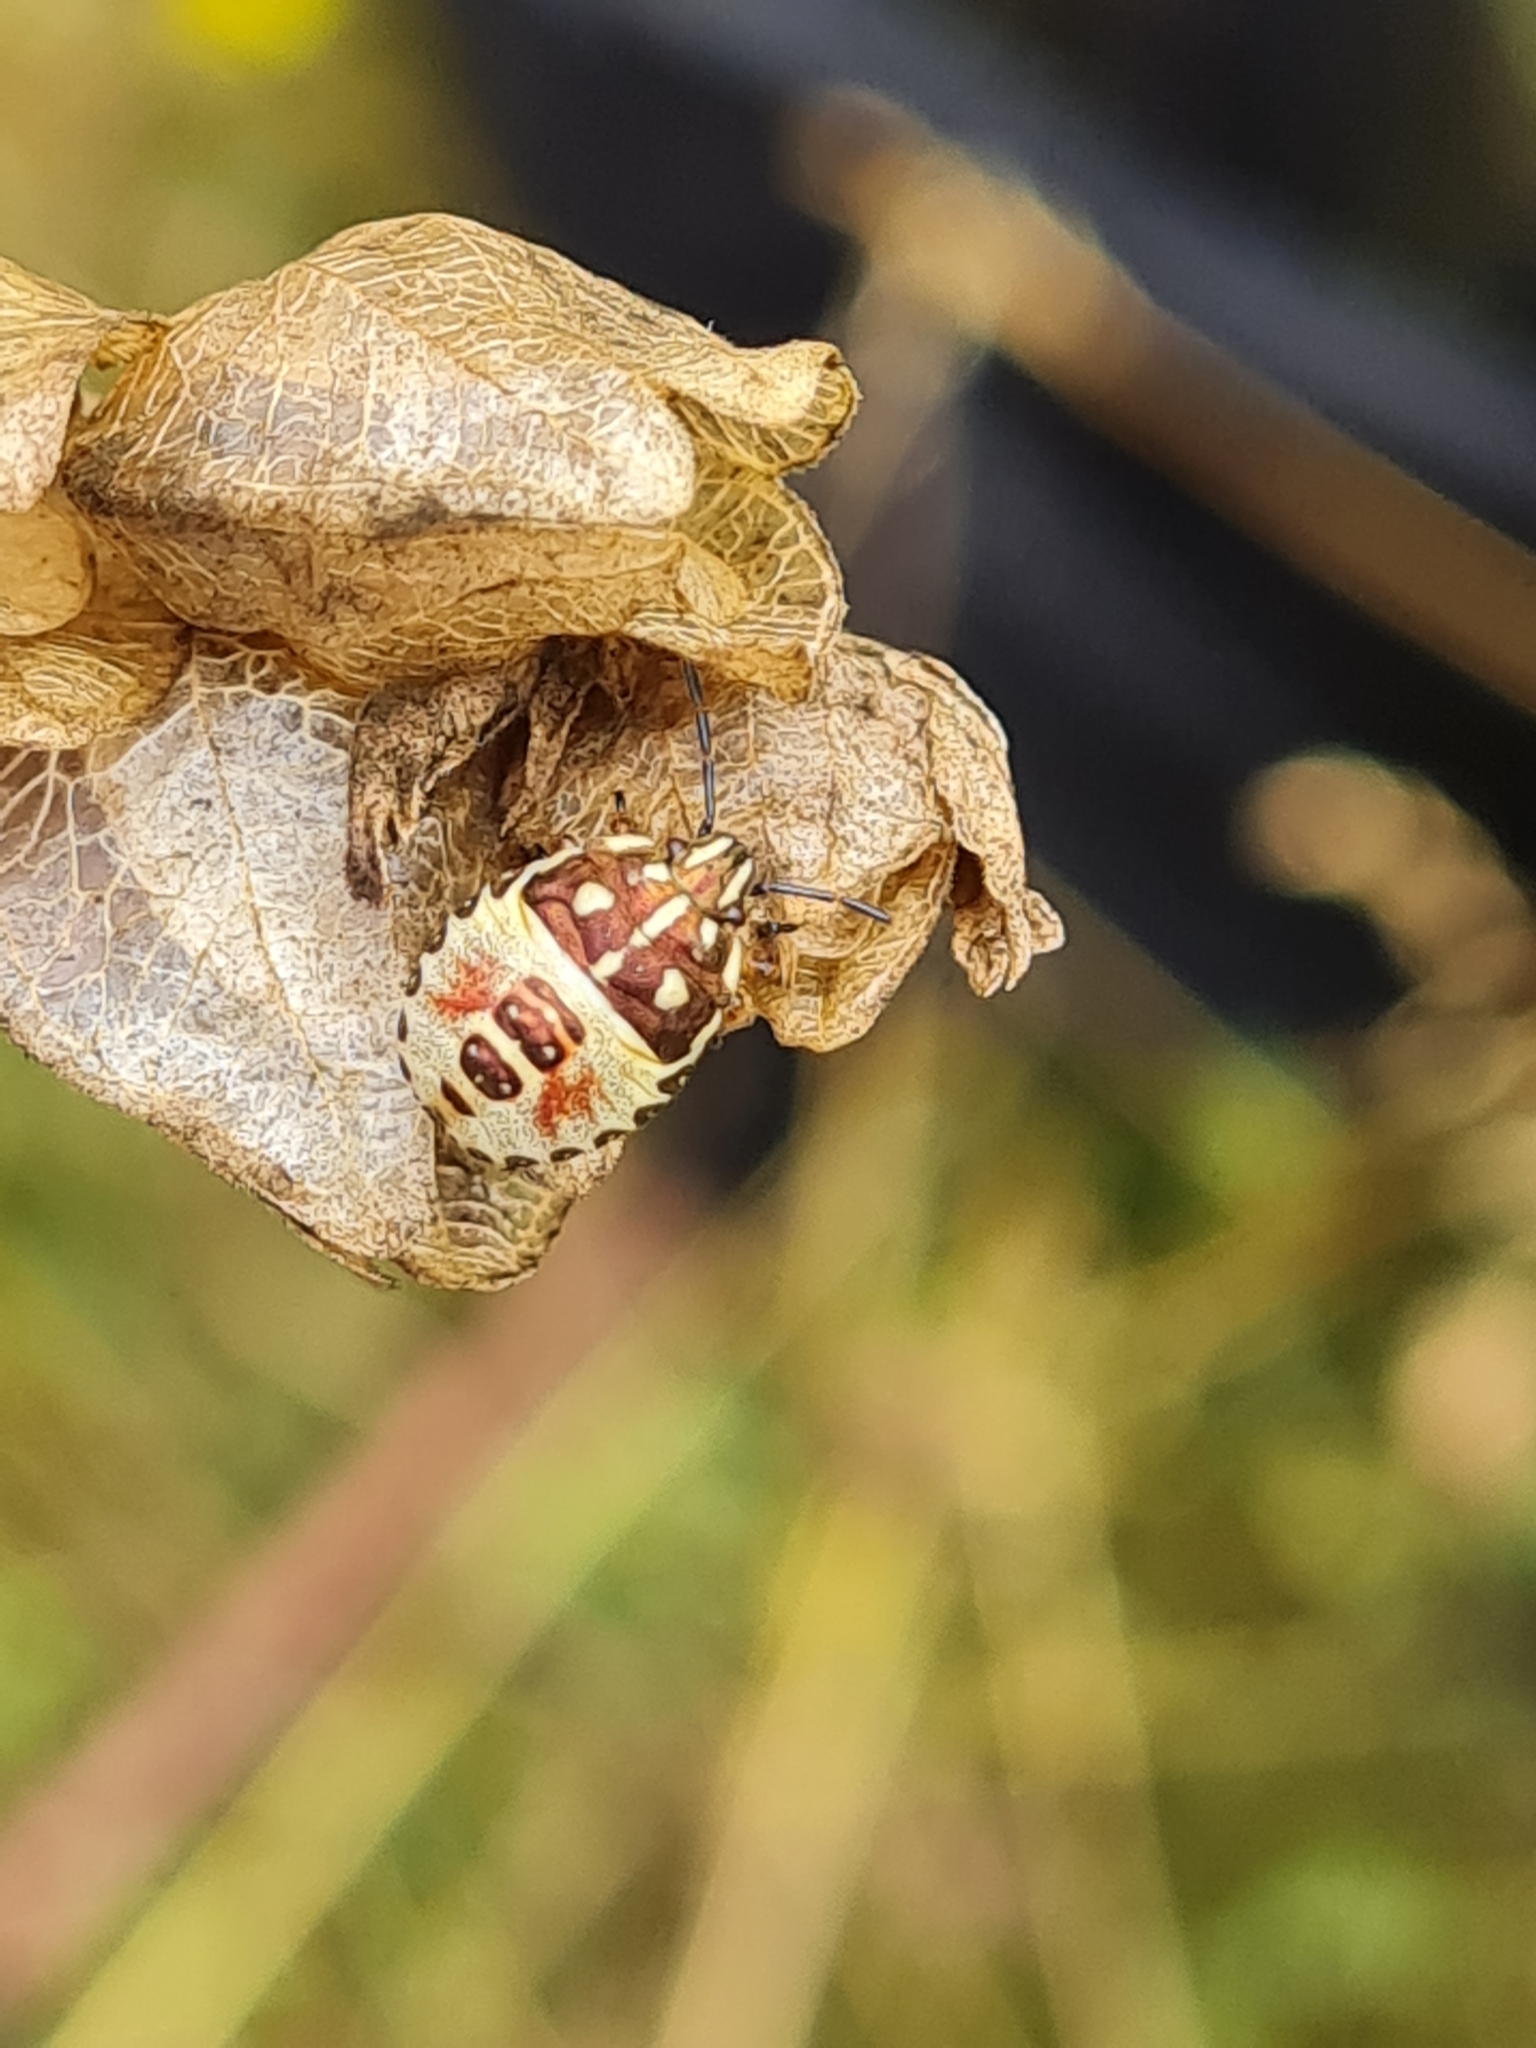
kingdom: Animalia
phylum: Arthropoda
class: Insecta
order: Hemiptera
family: Pentatomidae
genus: Carpocoris
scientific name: Carpocoris purpureipennis
